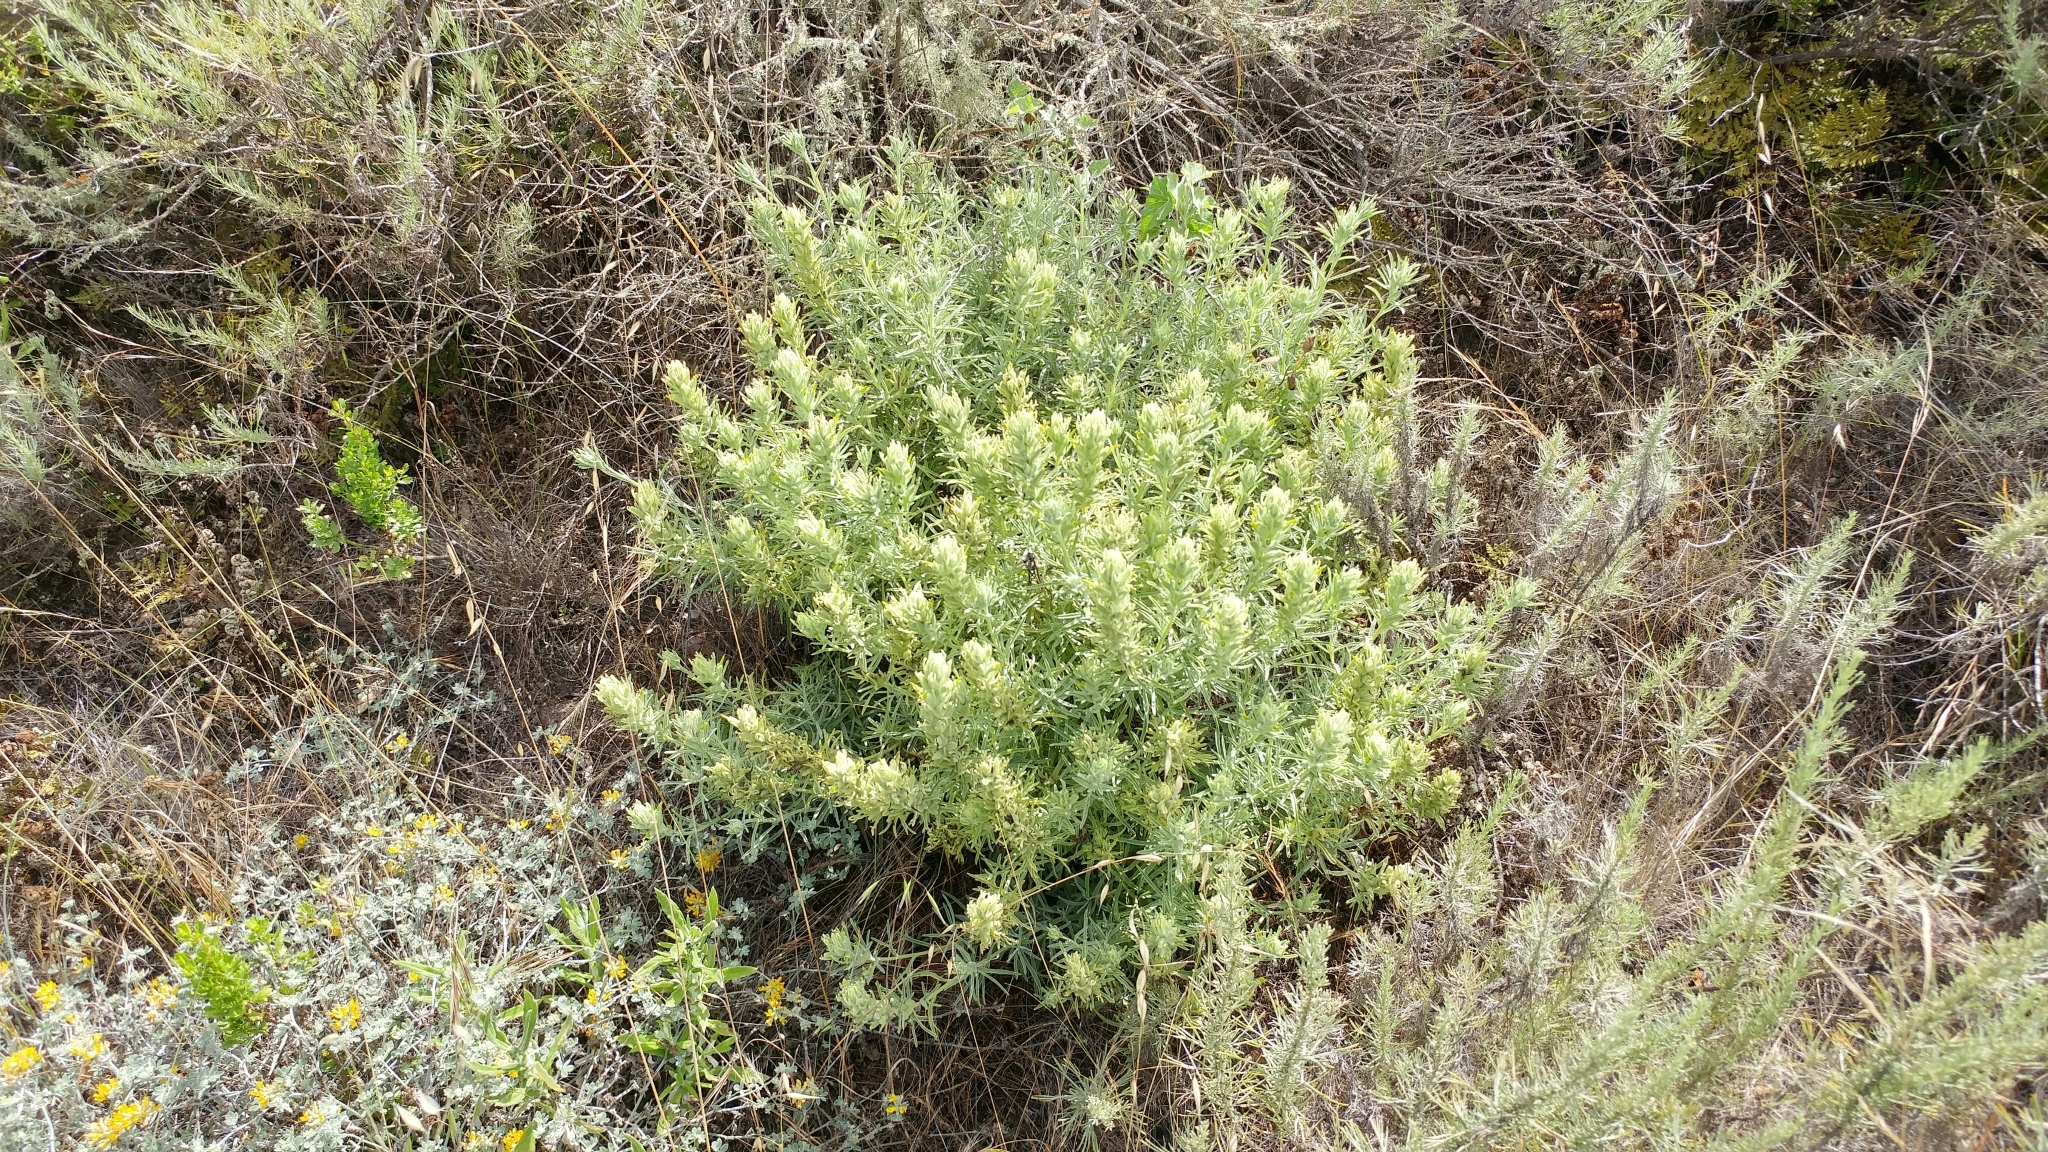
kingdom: Plantae
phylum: Tracheophyta
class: Magnoliopsida
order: Lamiales
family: Orobanchaceae
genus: Castilleja
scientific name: Castilleja grisea
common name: San clemente island indian paintbrush
